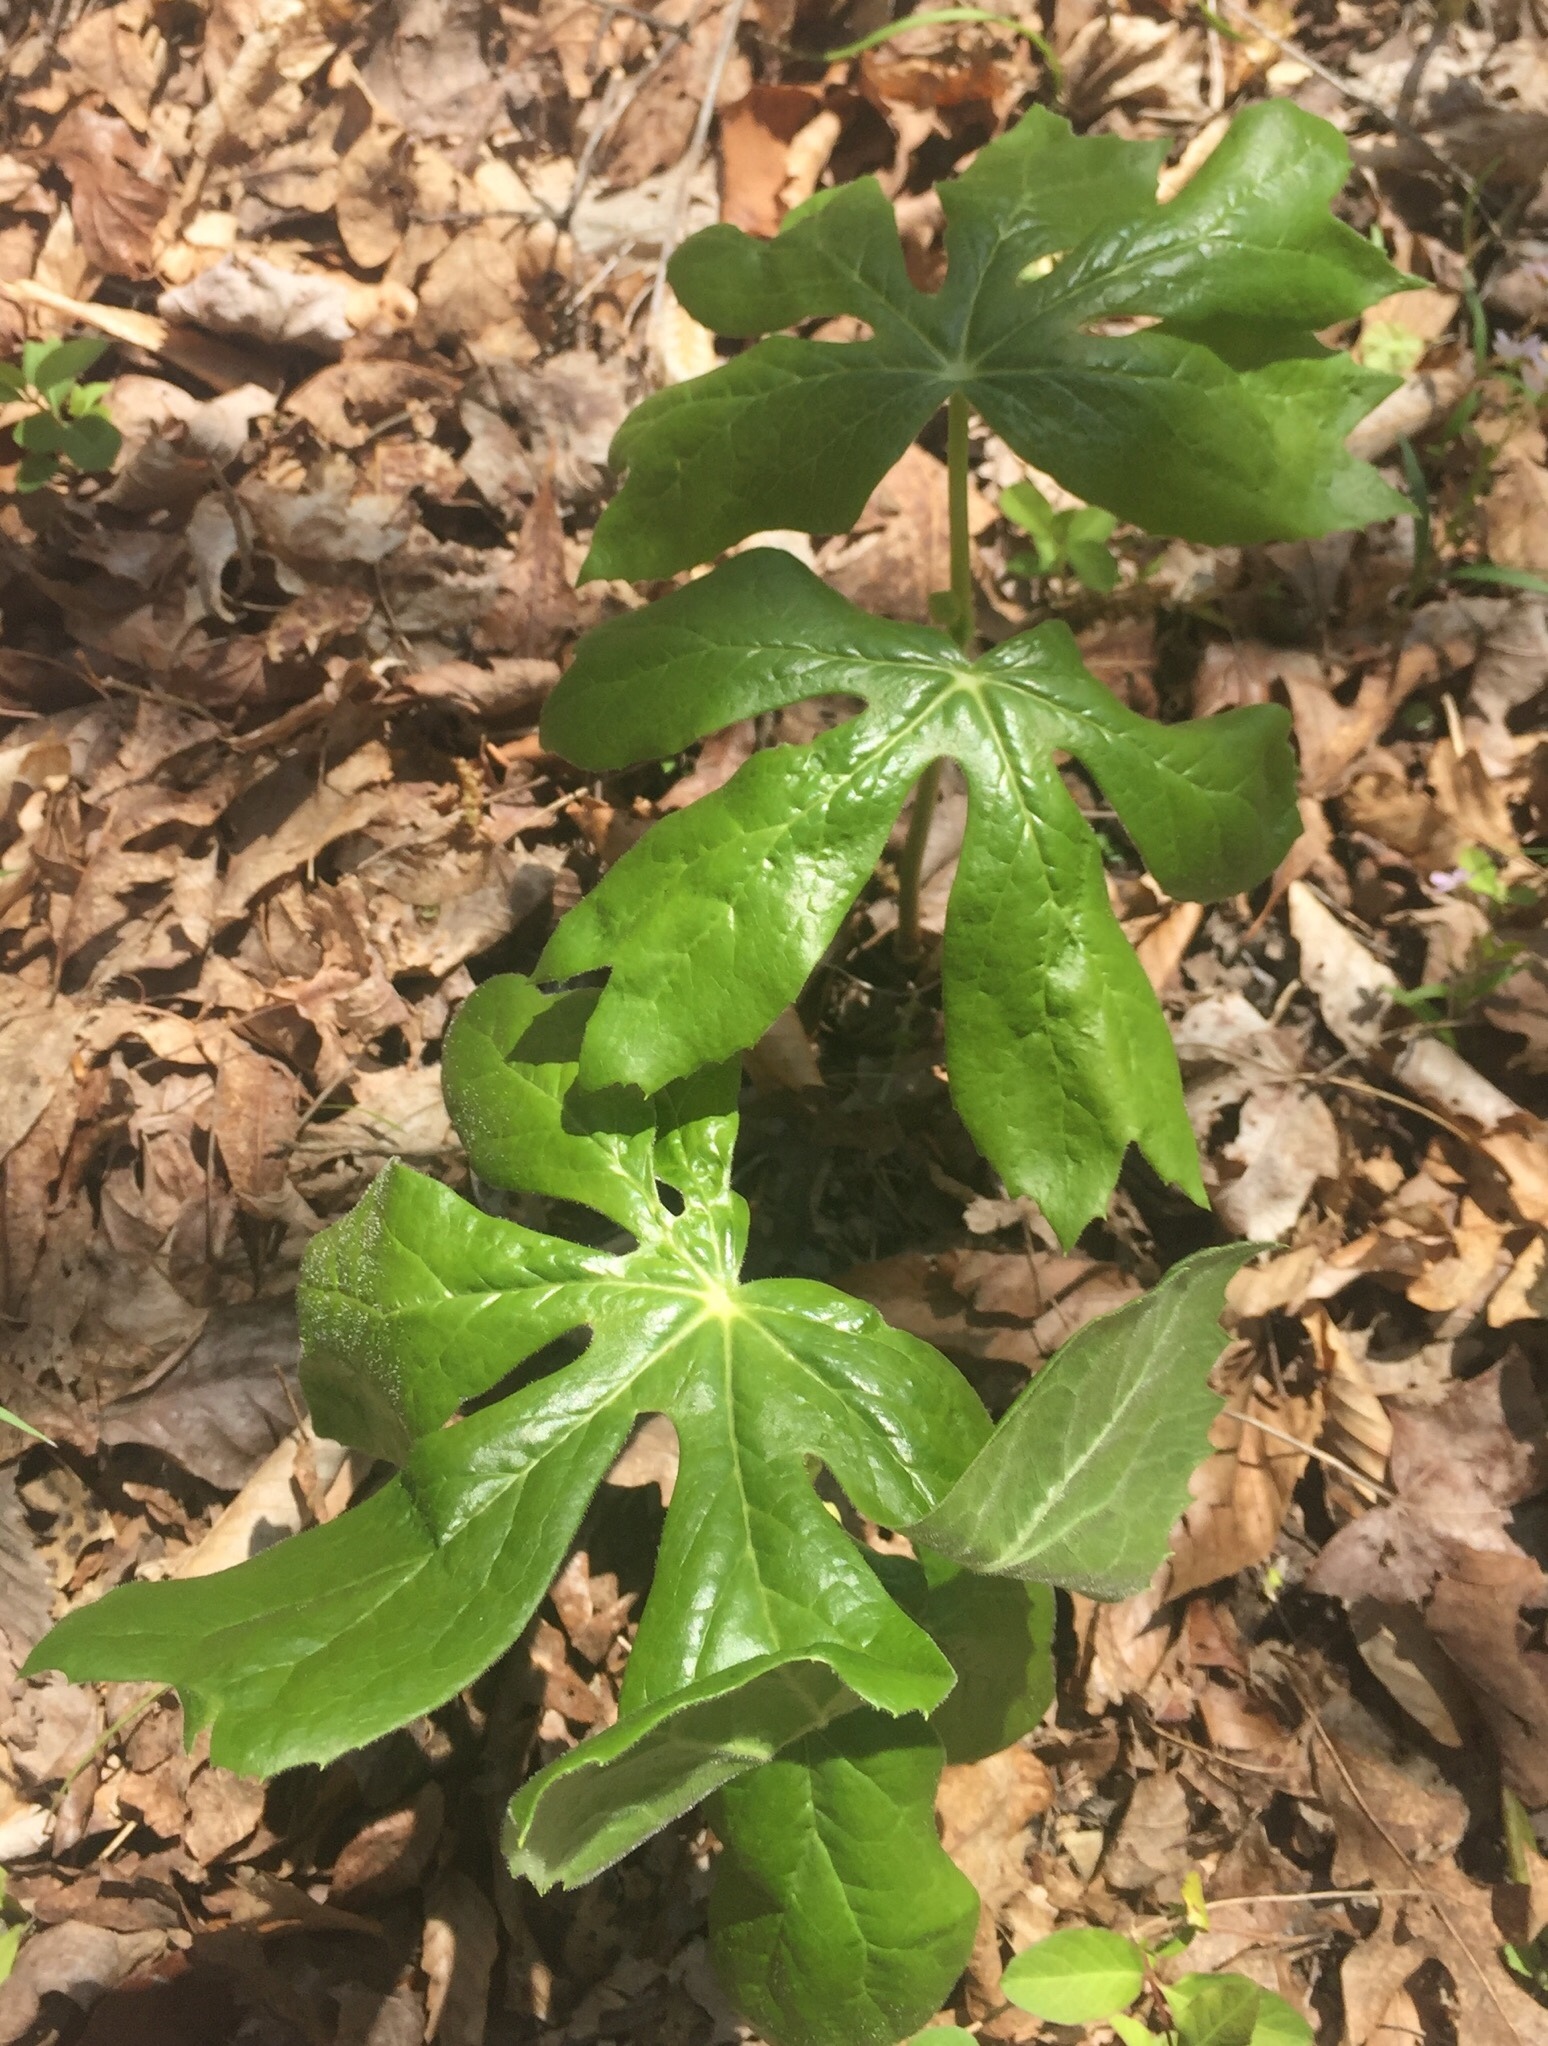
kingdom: Plantae
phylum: Tracheophyta
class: Magnoliopsida
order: Ranunculales
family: Berberidaceae
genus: Podophyllum
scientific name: Podophyllum peltatum
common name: Wild mandrake
